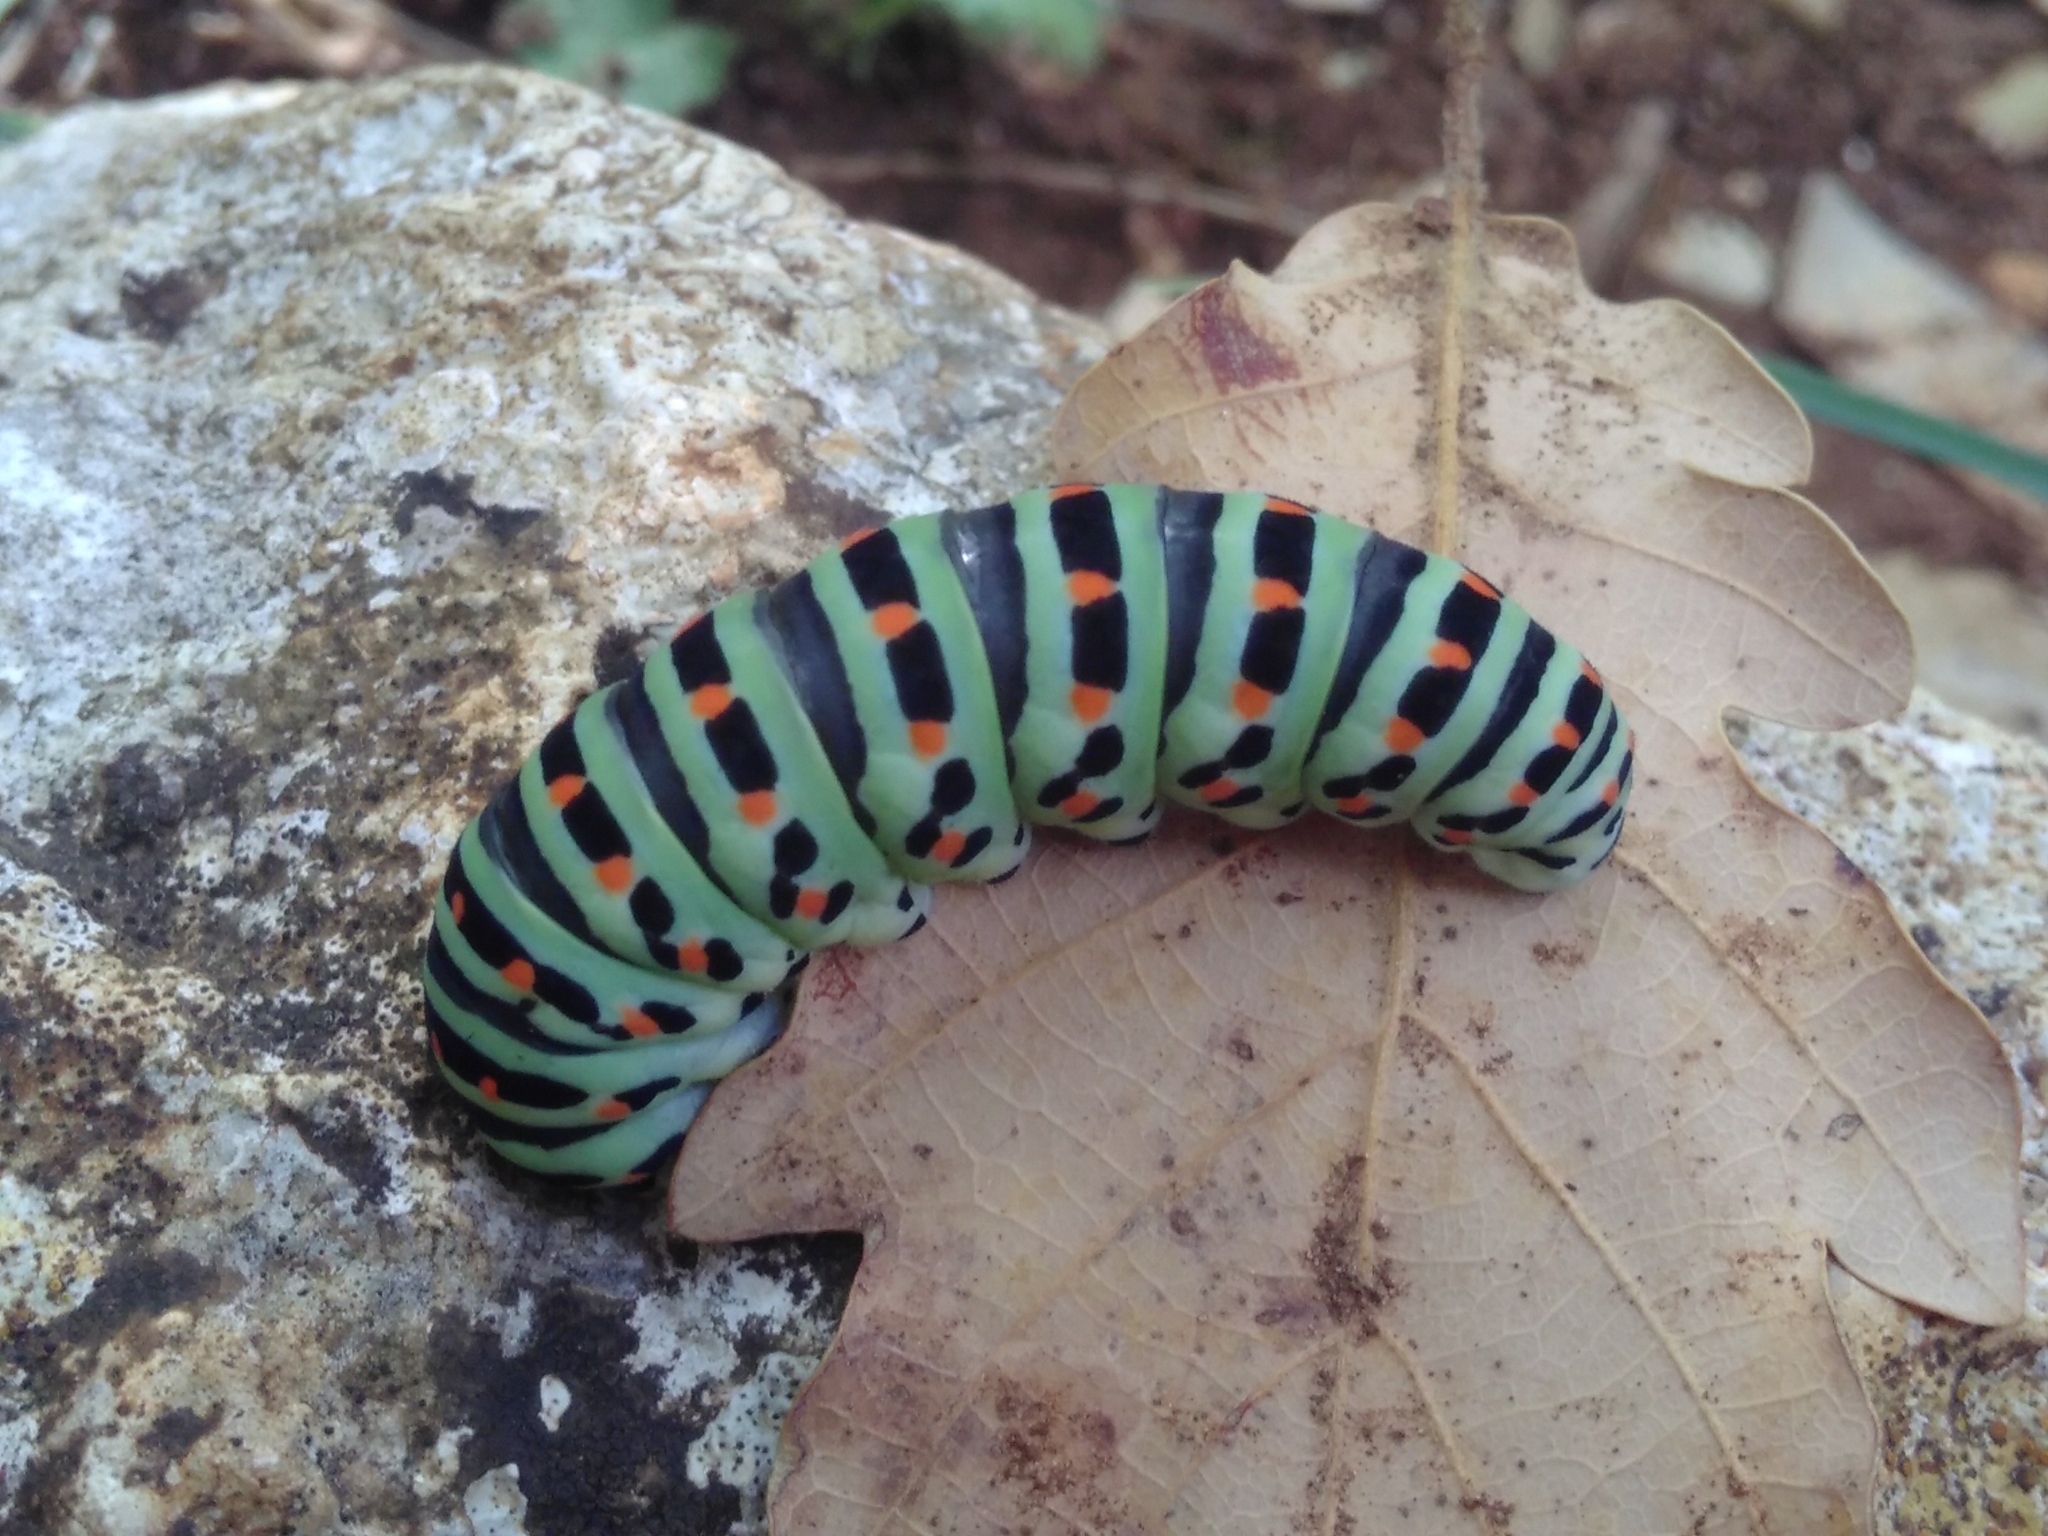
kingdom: Animalia
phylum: Arthropoda
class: Insecta
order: Lepidoptera
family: Papilionidae
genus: Papilio
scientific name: Papilio machaon
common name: Swallowtail
